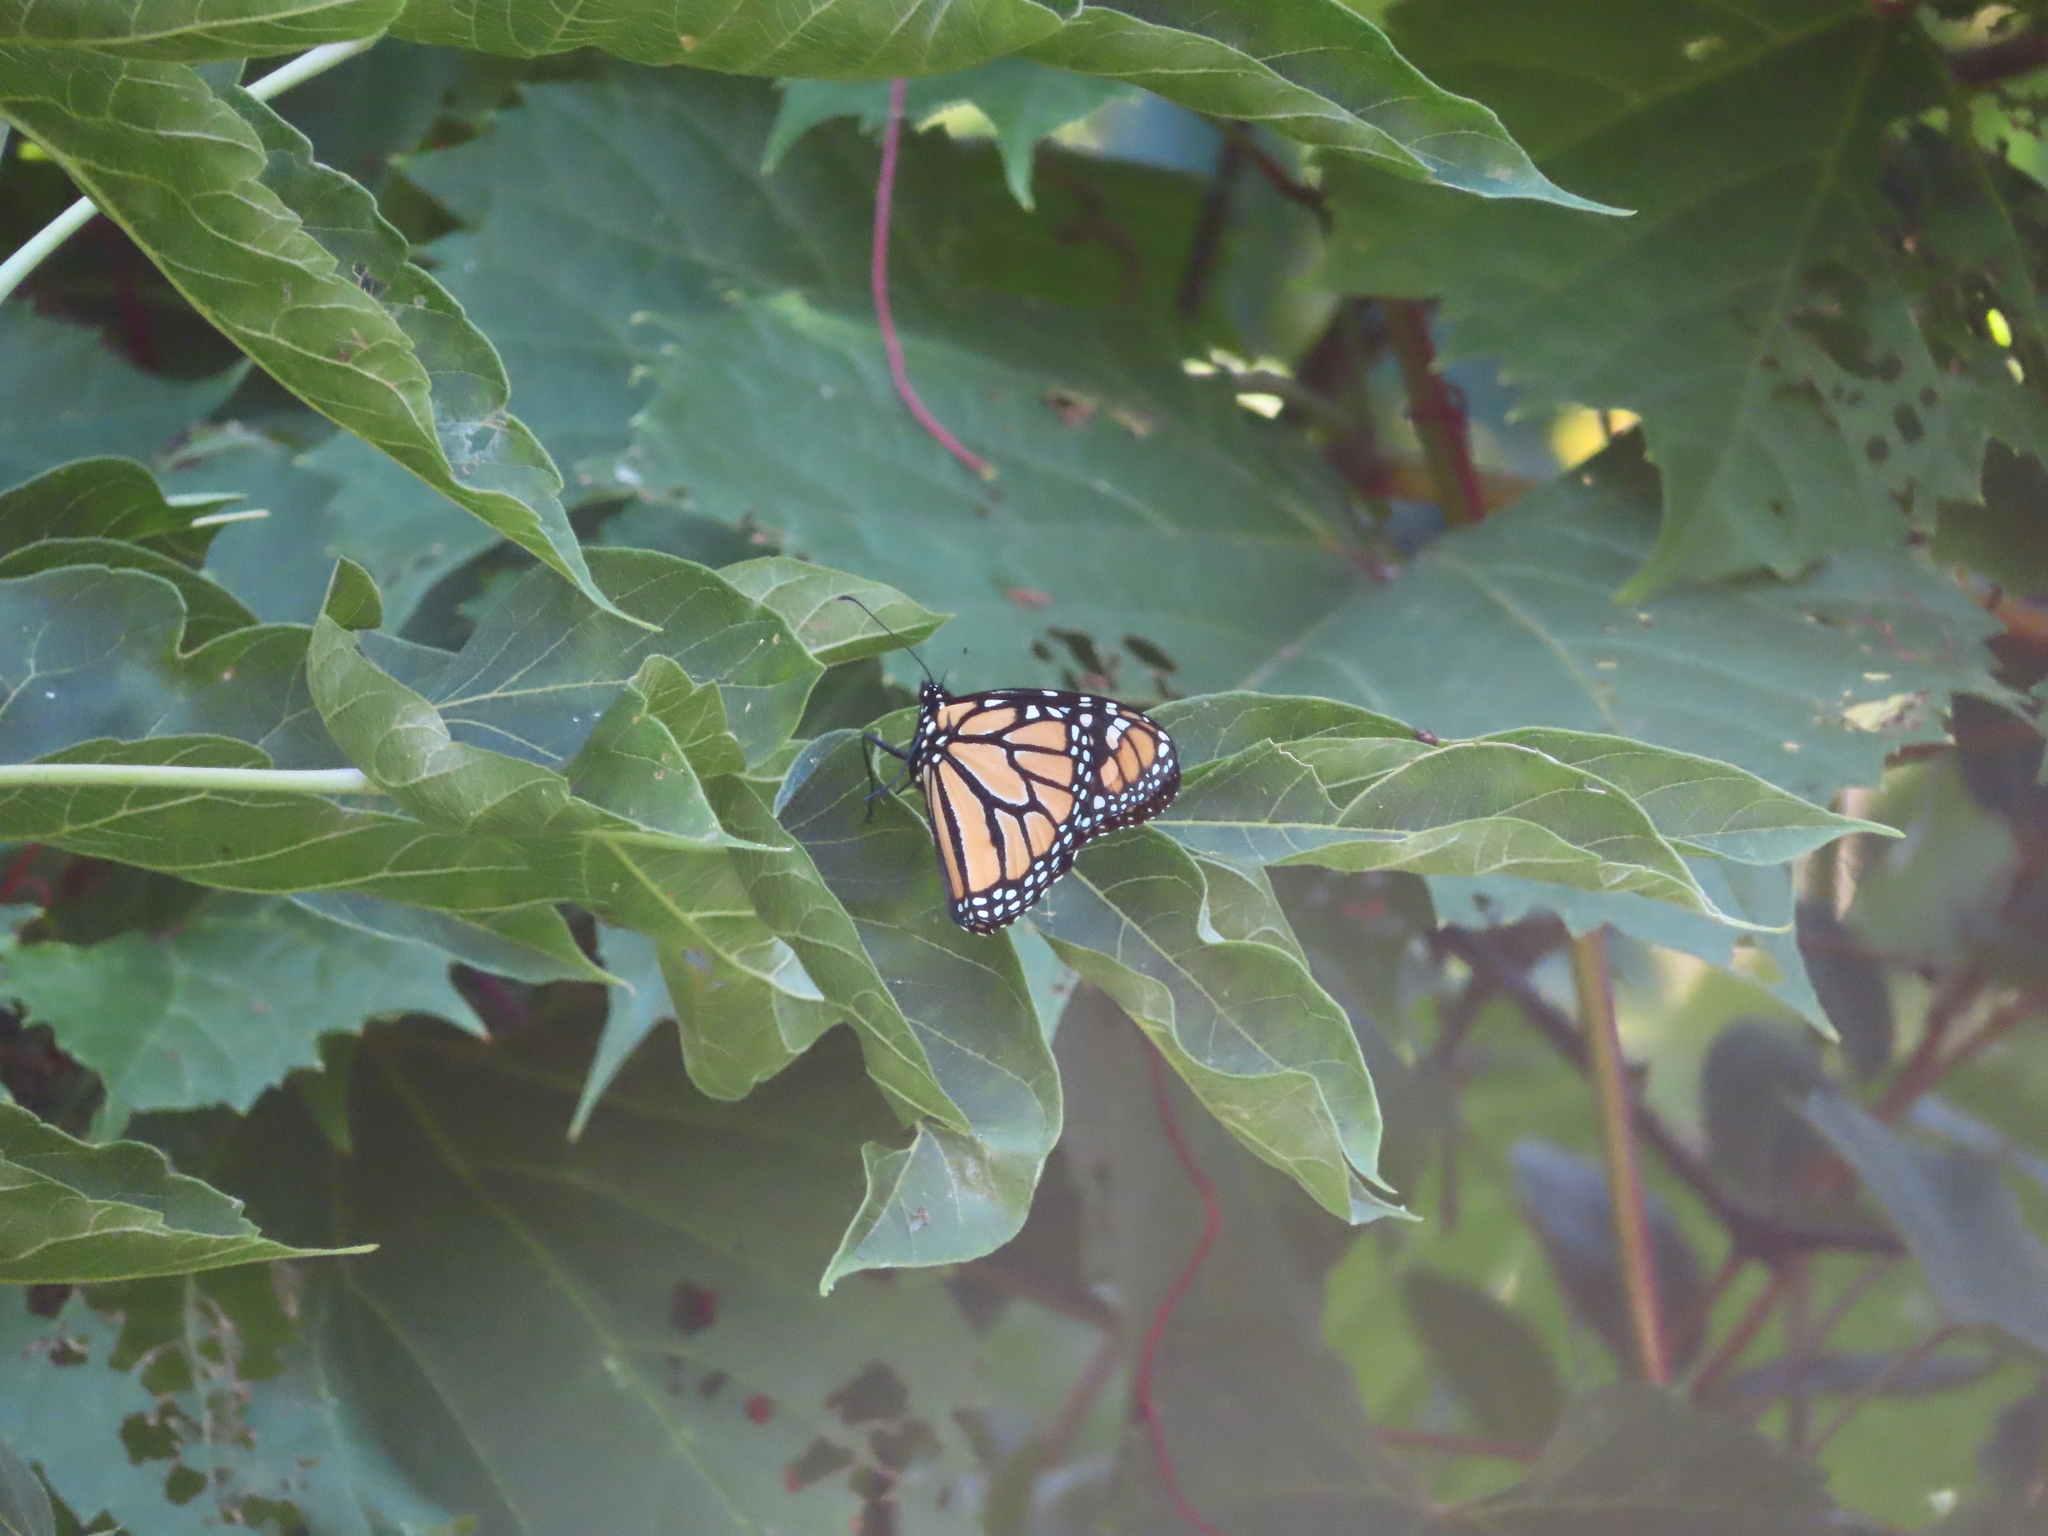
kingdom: Animalia
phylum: Arthropoda
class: Insecta
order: Lepidoptera
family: Nymphalidae
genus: Danaus
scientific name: Danaus plexippus
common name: Monarch
